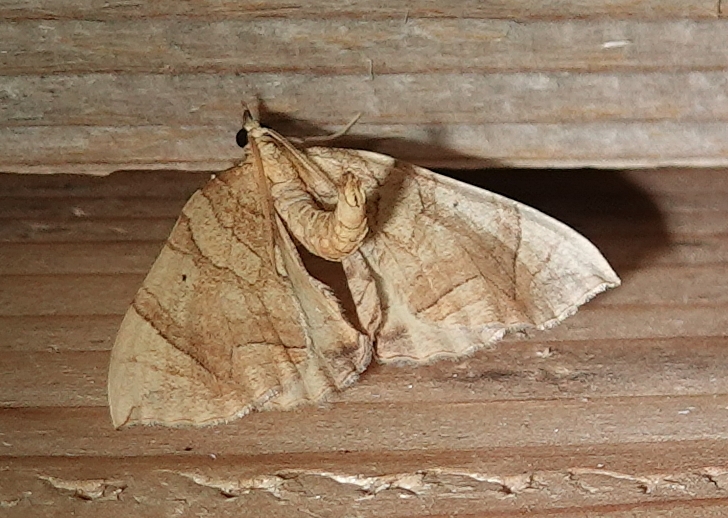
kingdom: Animalia
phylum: Arthropoda
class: Insecta
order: Lepidoptera
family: Geometridae
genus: Eulithis
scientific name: Eulithis
